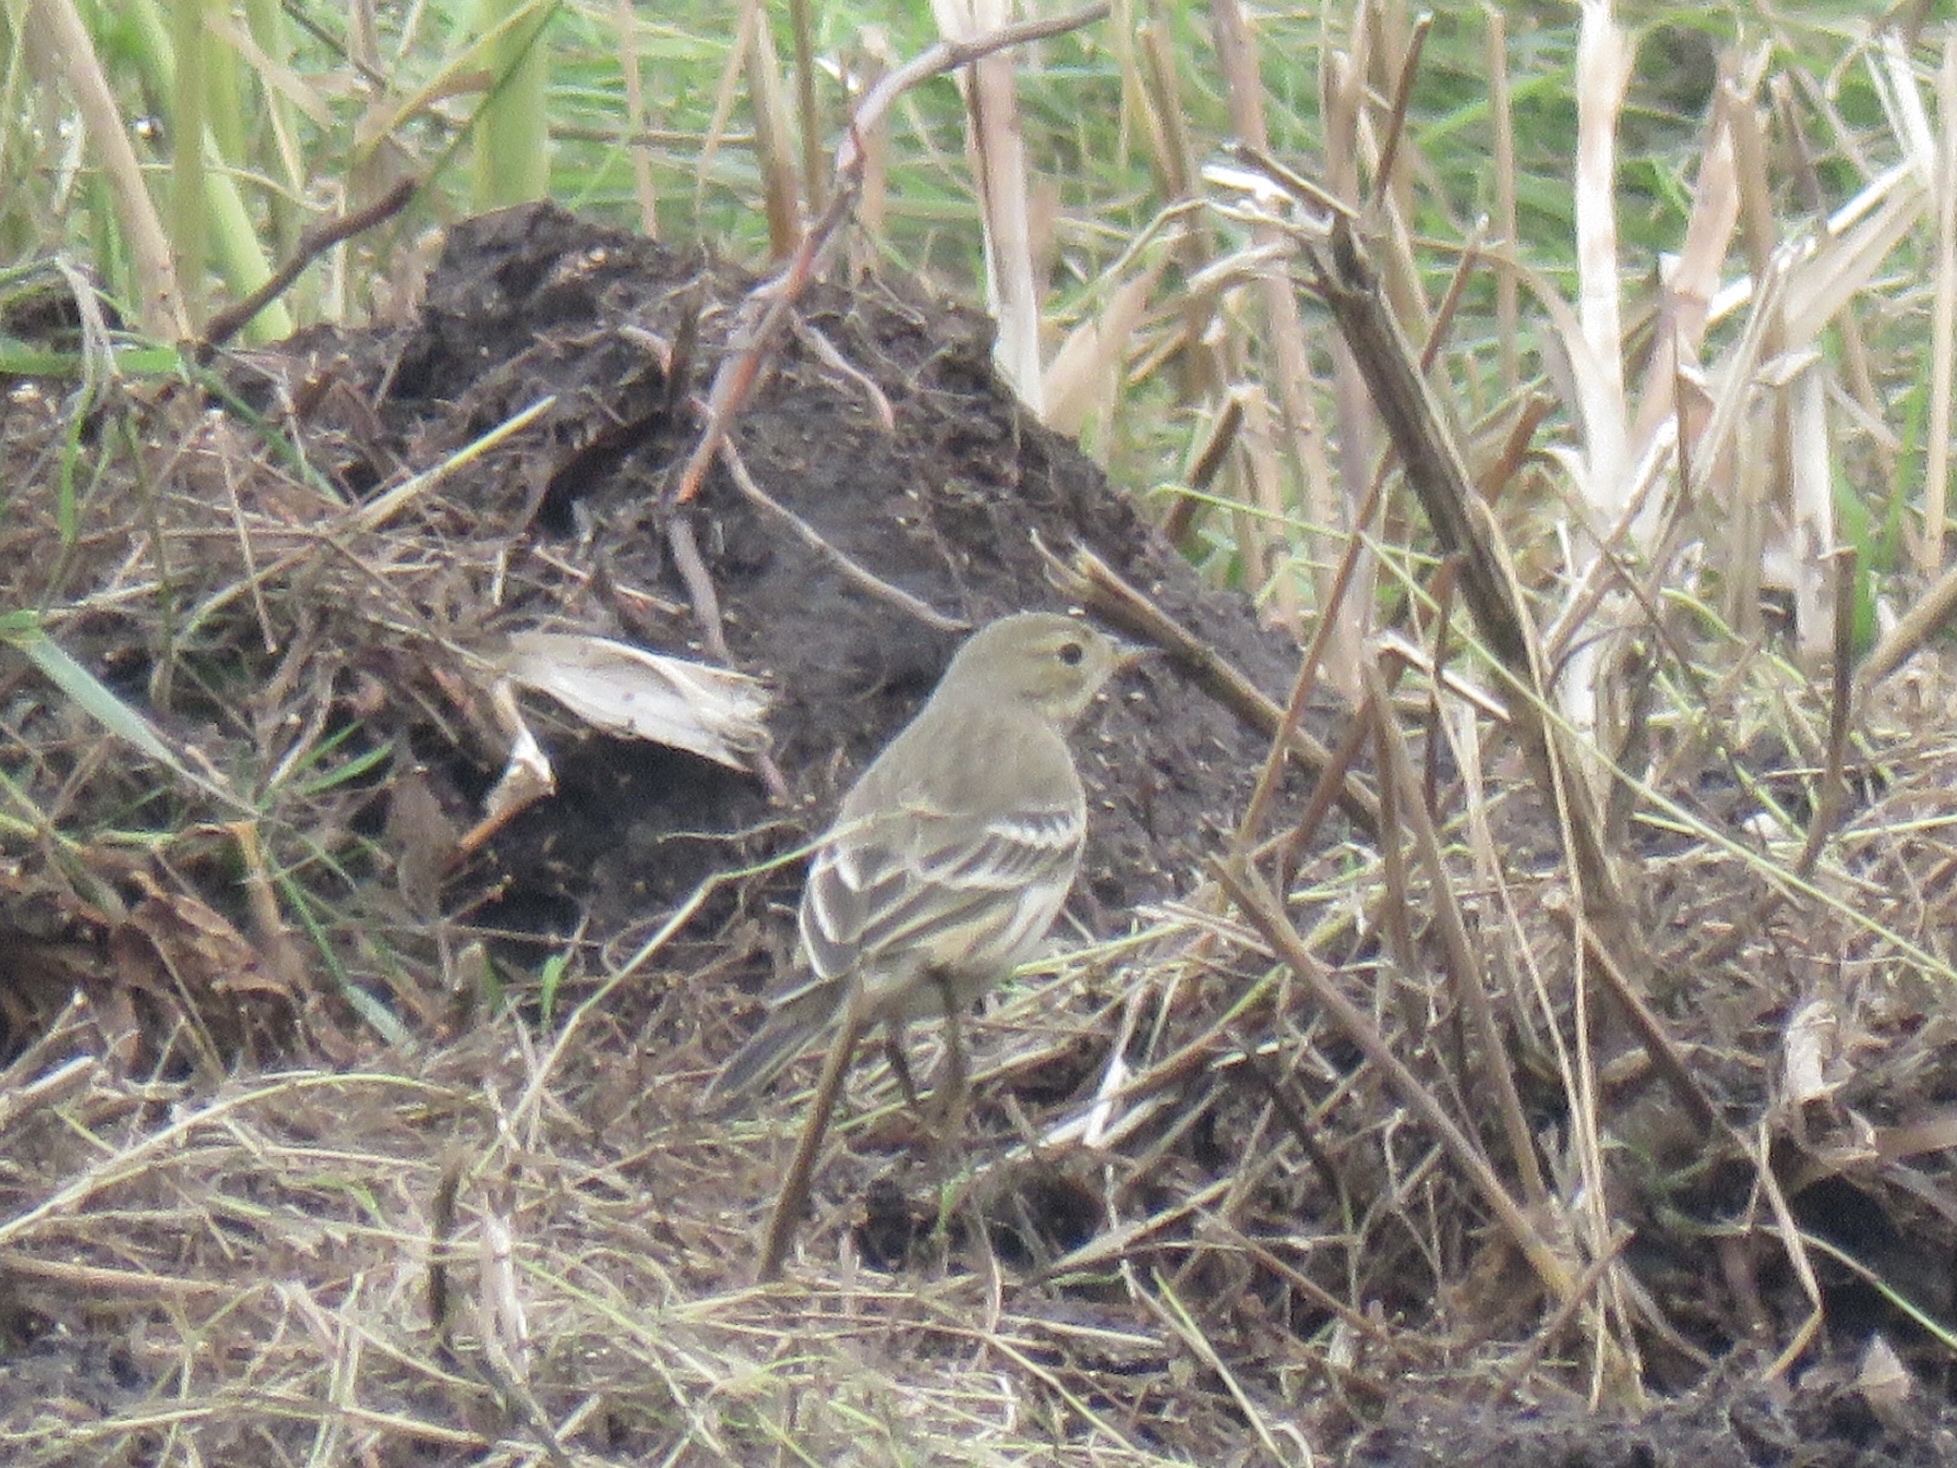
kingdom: Animalia
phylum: Chordata
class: Aves
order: Passeriformes
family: Motacillidae
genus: Anthus
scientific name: Anthus rubescens
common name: Buff-bellied pipit
